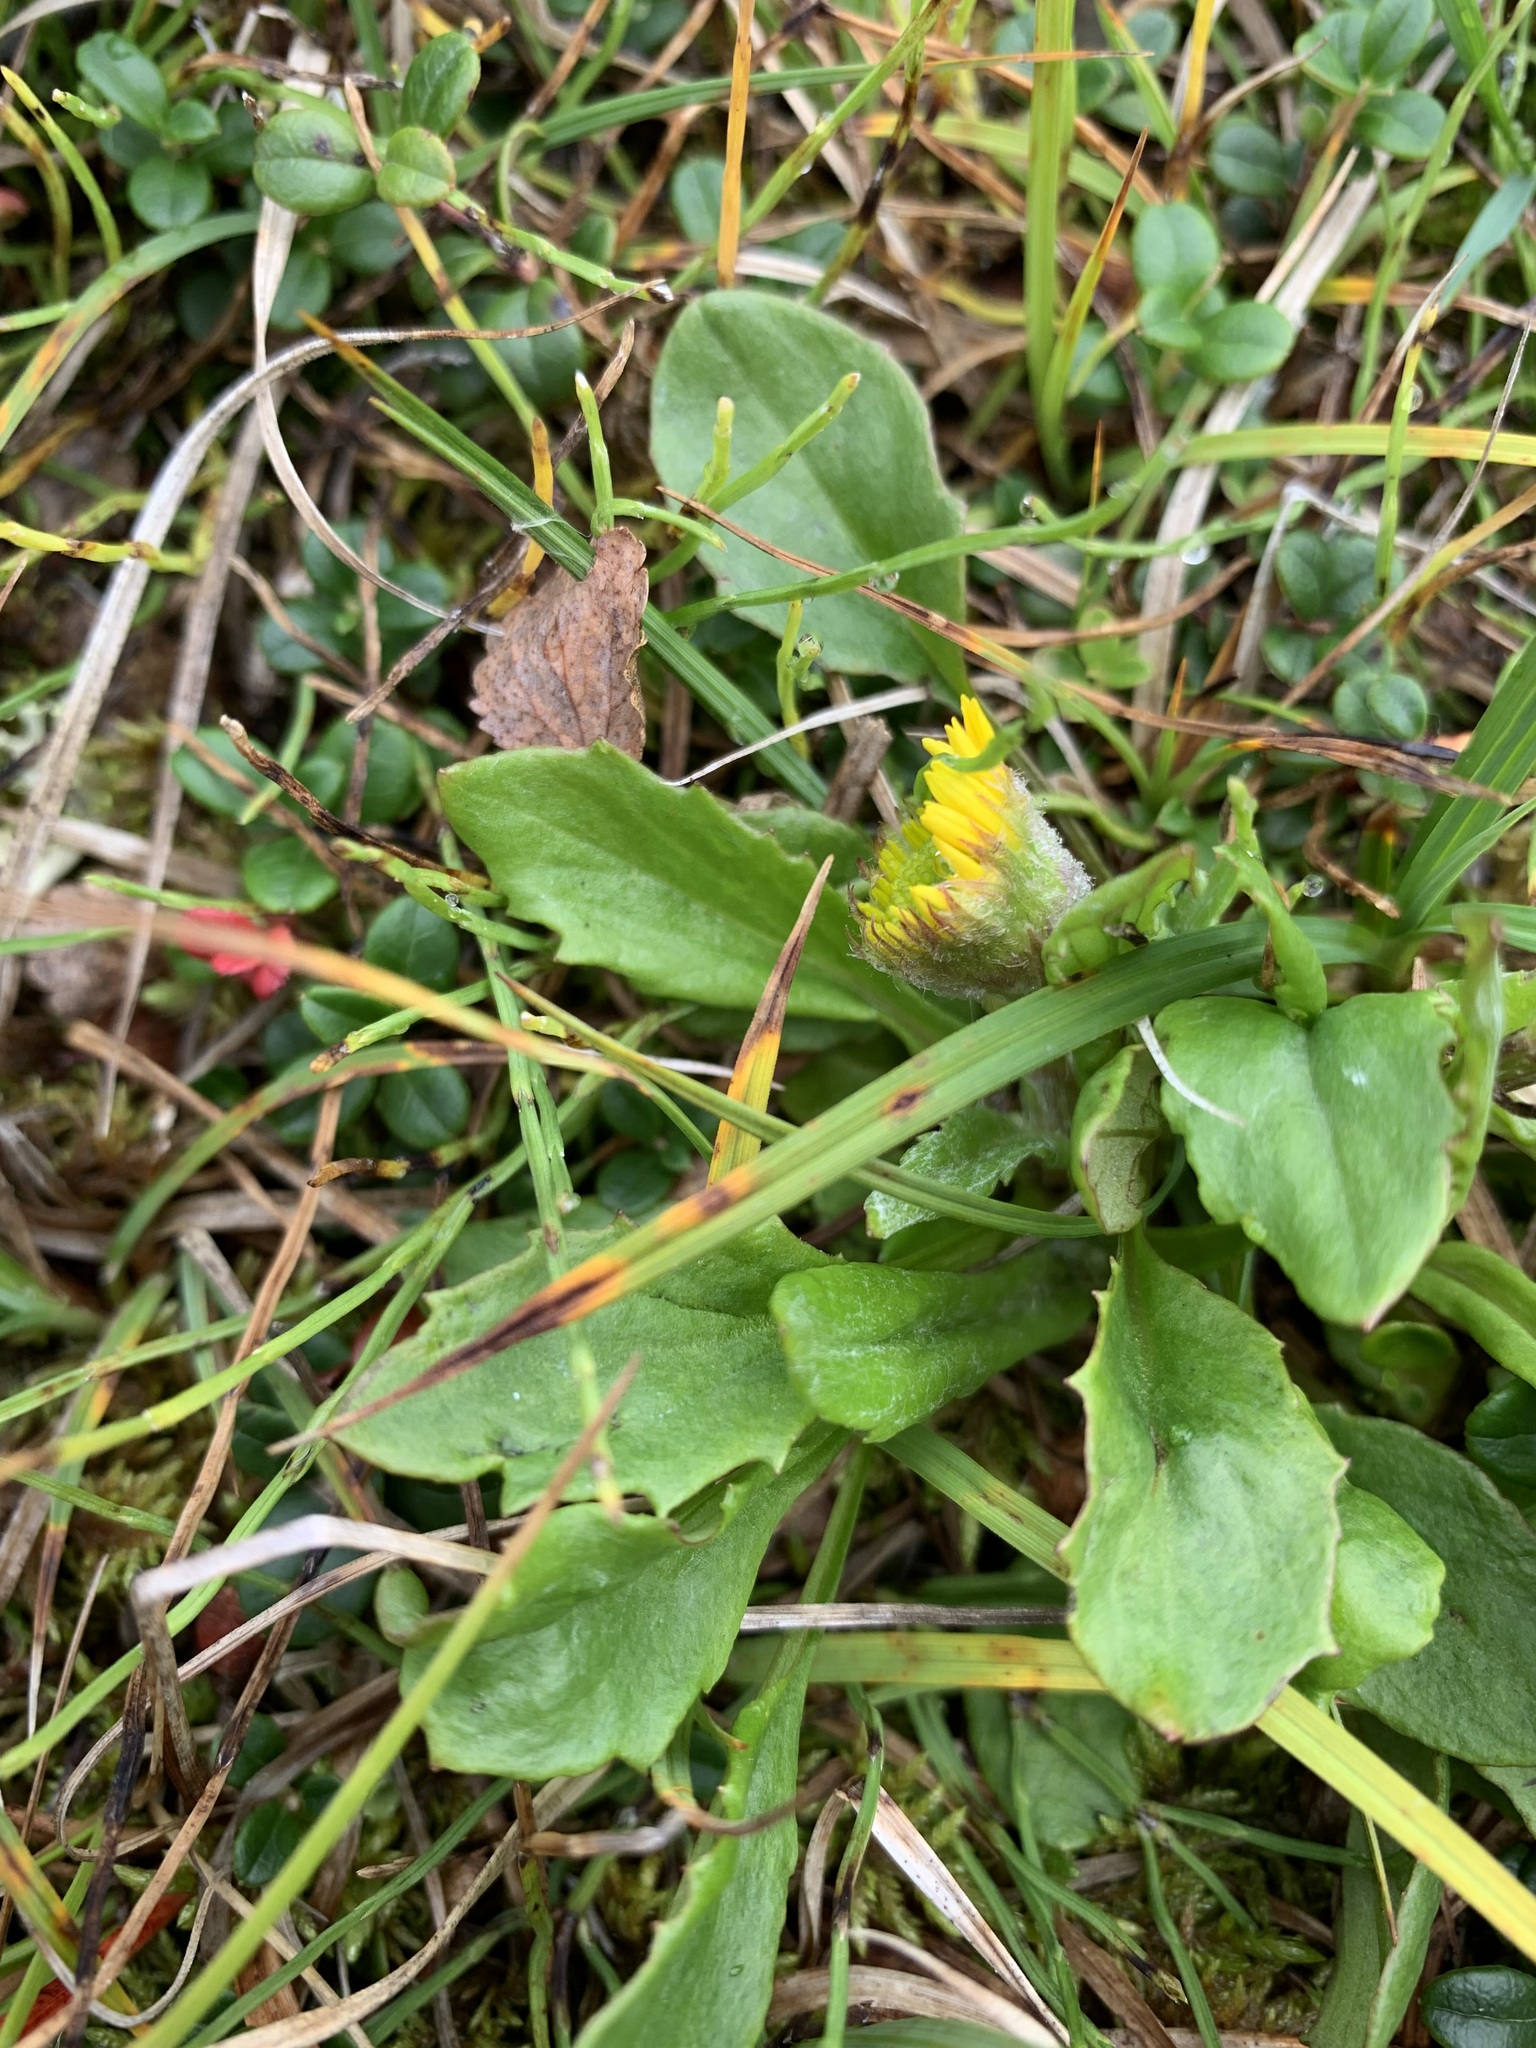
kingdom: Plantae
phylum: Tracheophyta
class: Magnoliopsida
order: Asterales
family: Asteraceae
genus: Tephroseris
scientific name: Tephroseris integrifolia
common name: Field fleawort
